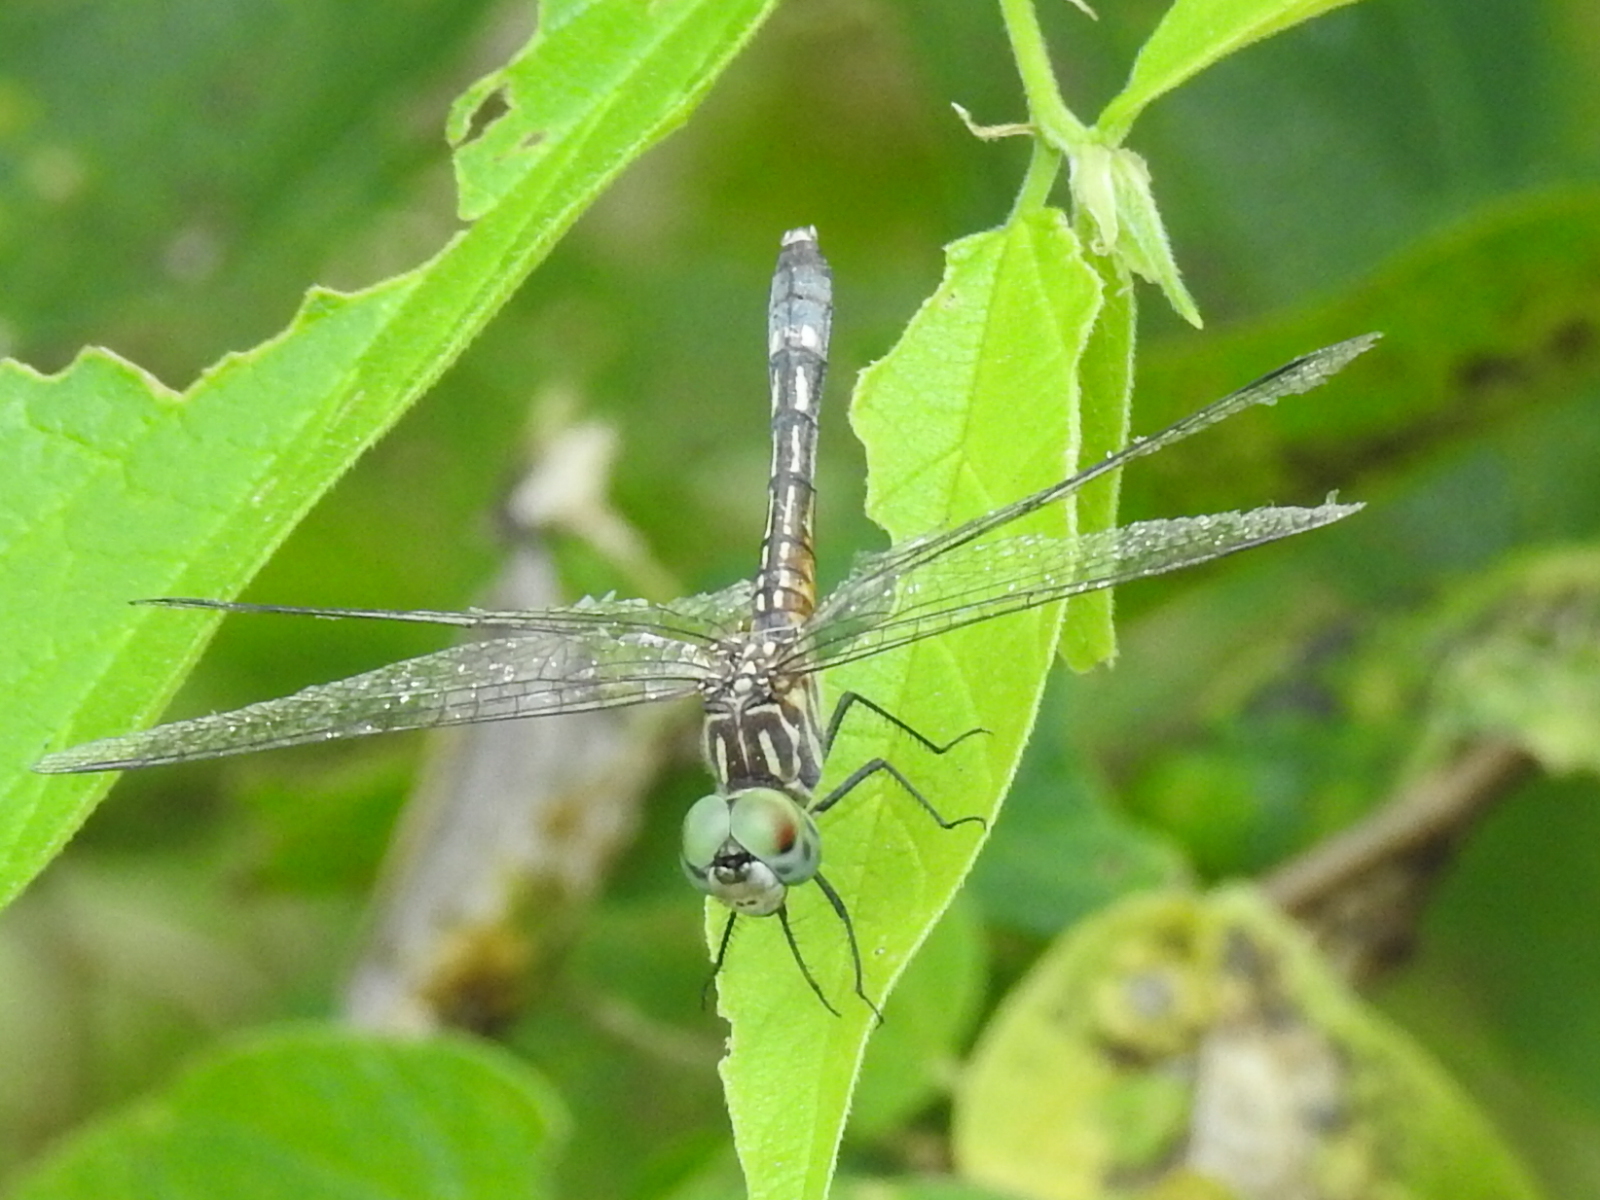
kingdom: Animalia
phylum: Arthropoda
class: Insecta
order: Odonata
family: Libellulidae
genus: Pachydiplax
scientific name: Pachydiplax longipennis
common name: Blue dasher
